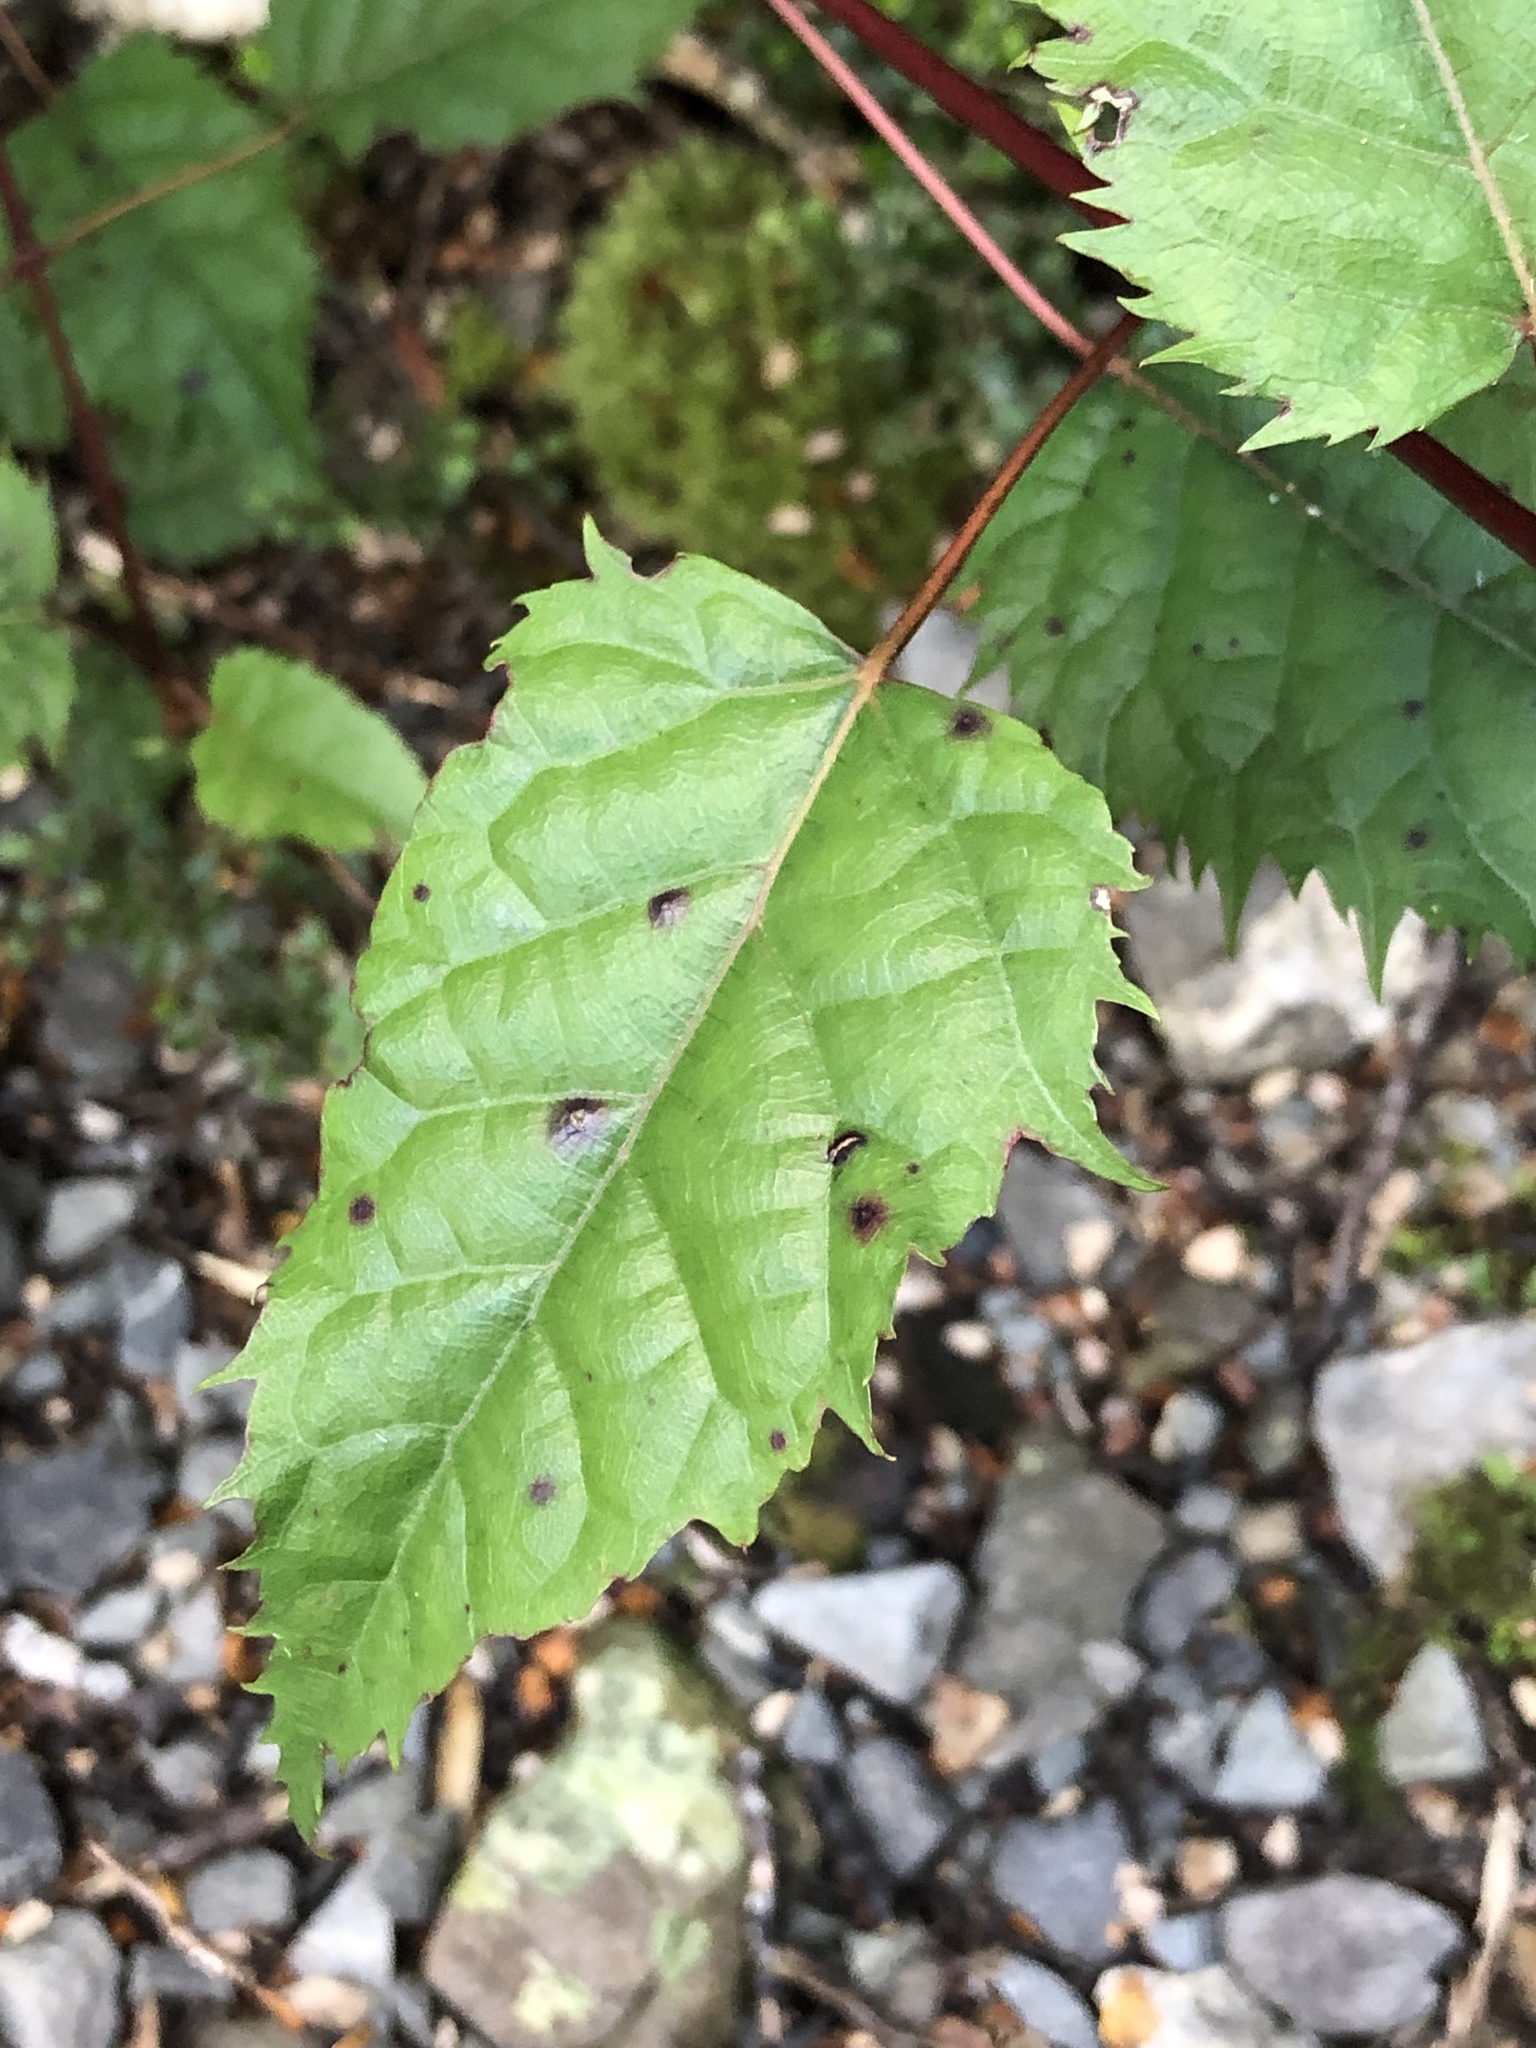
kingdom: Plantae
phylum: Tracheophyta
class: Magnoliopsida
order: Oxalidales
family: Elaeocarpaceae
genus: Aristotelia
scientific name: Aristotelia serrata
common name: New zealand wineberry
